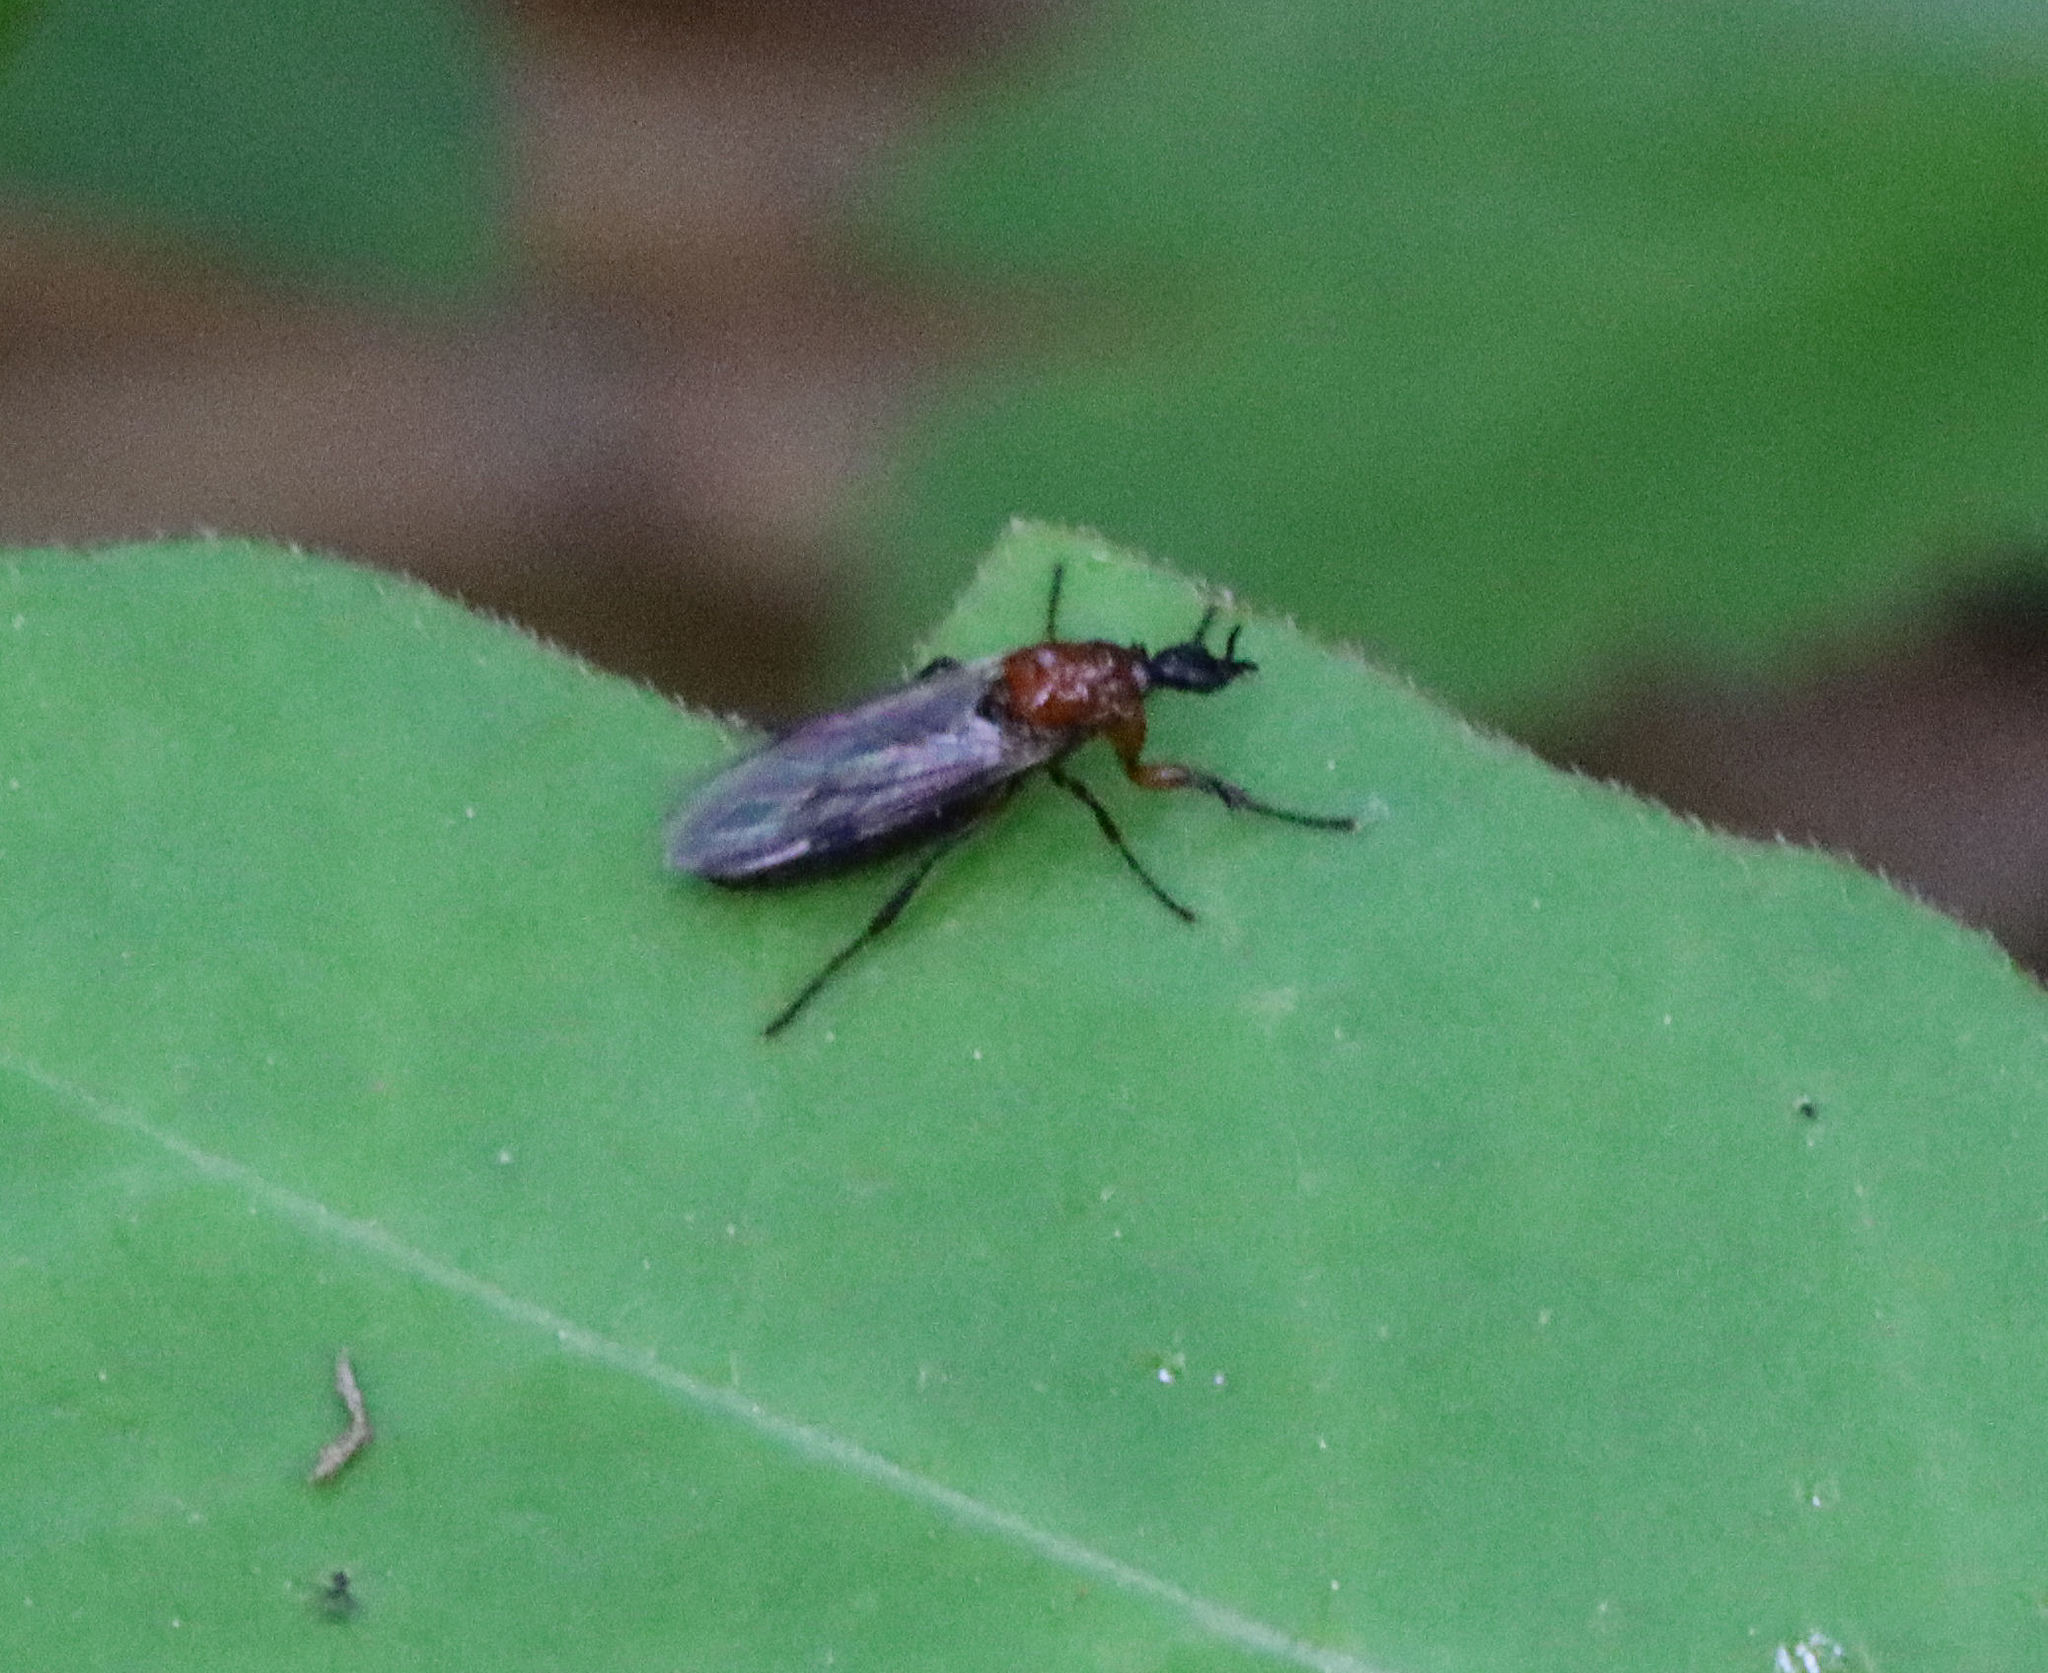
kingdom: Animalia
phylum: Arthropoda
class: Insecta
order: Diptera
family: Bibionidae
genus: Dilophus
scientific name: Dilophus tibialis
